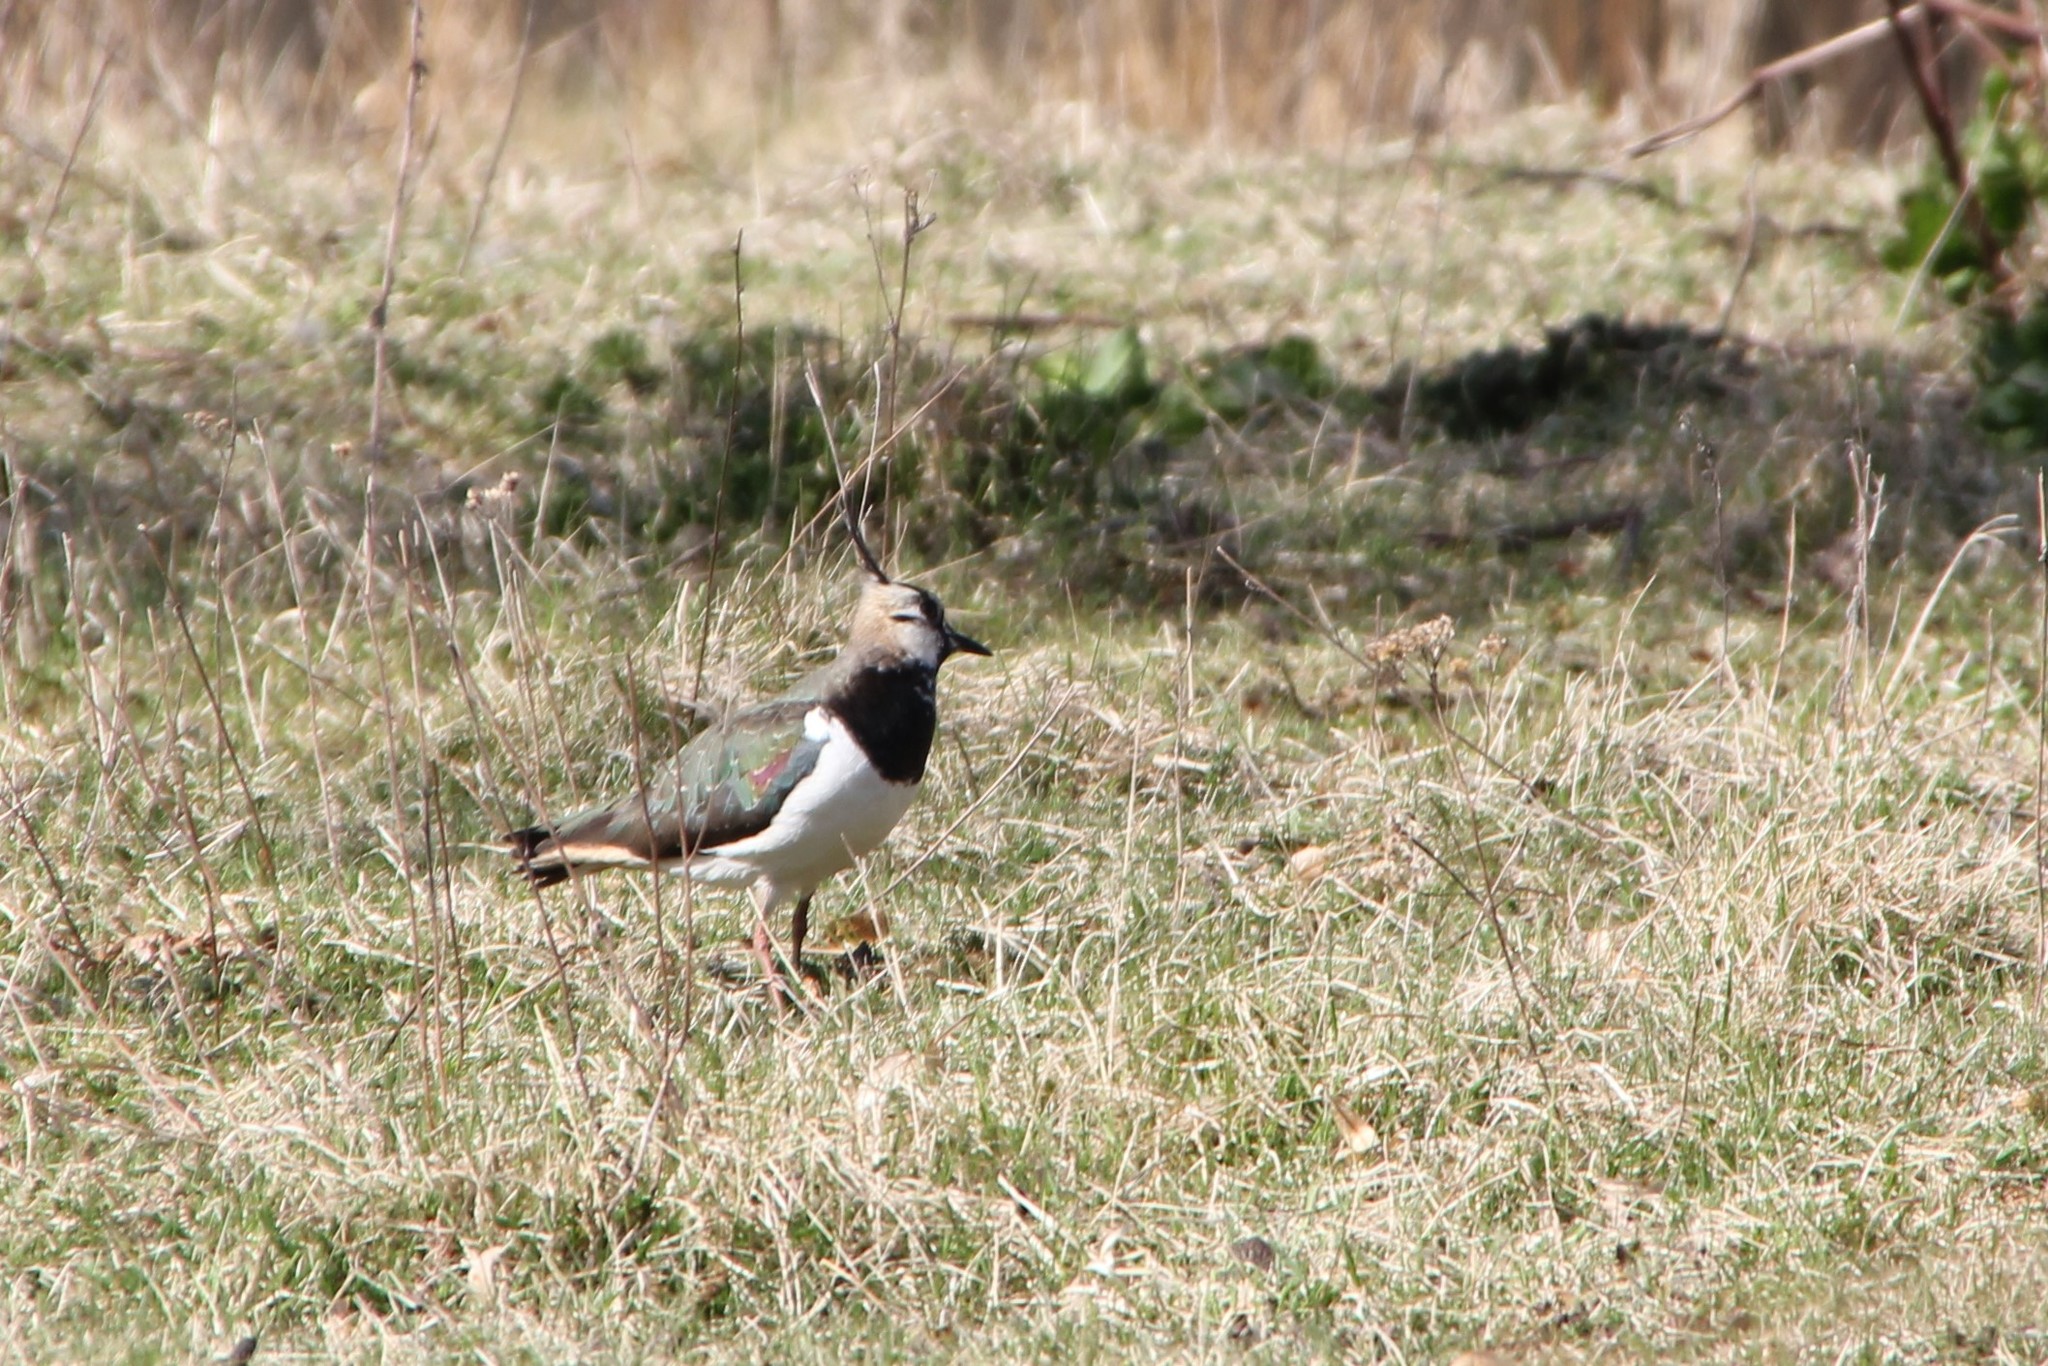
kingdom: Animalia
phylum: Chordata
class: Aves
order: Charadriiformes
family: Charadriidae
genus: Vanellus
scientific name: Vanellus vanellus
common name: Northern lapwing
